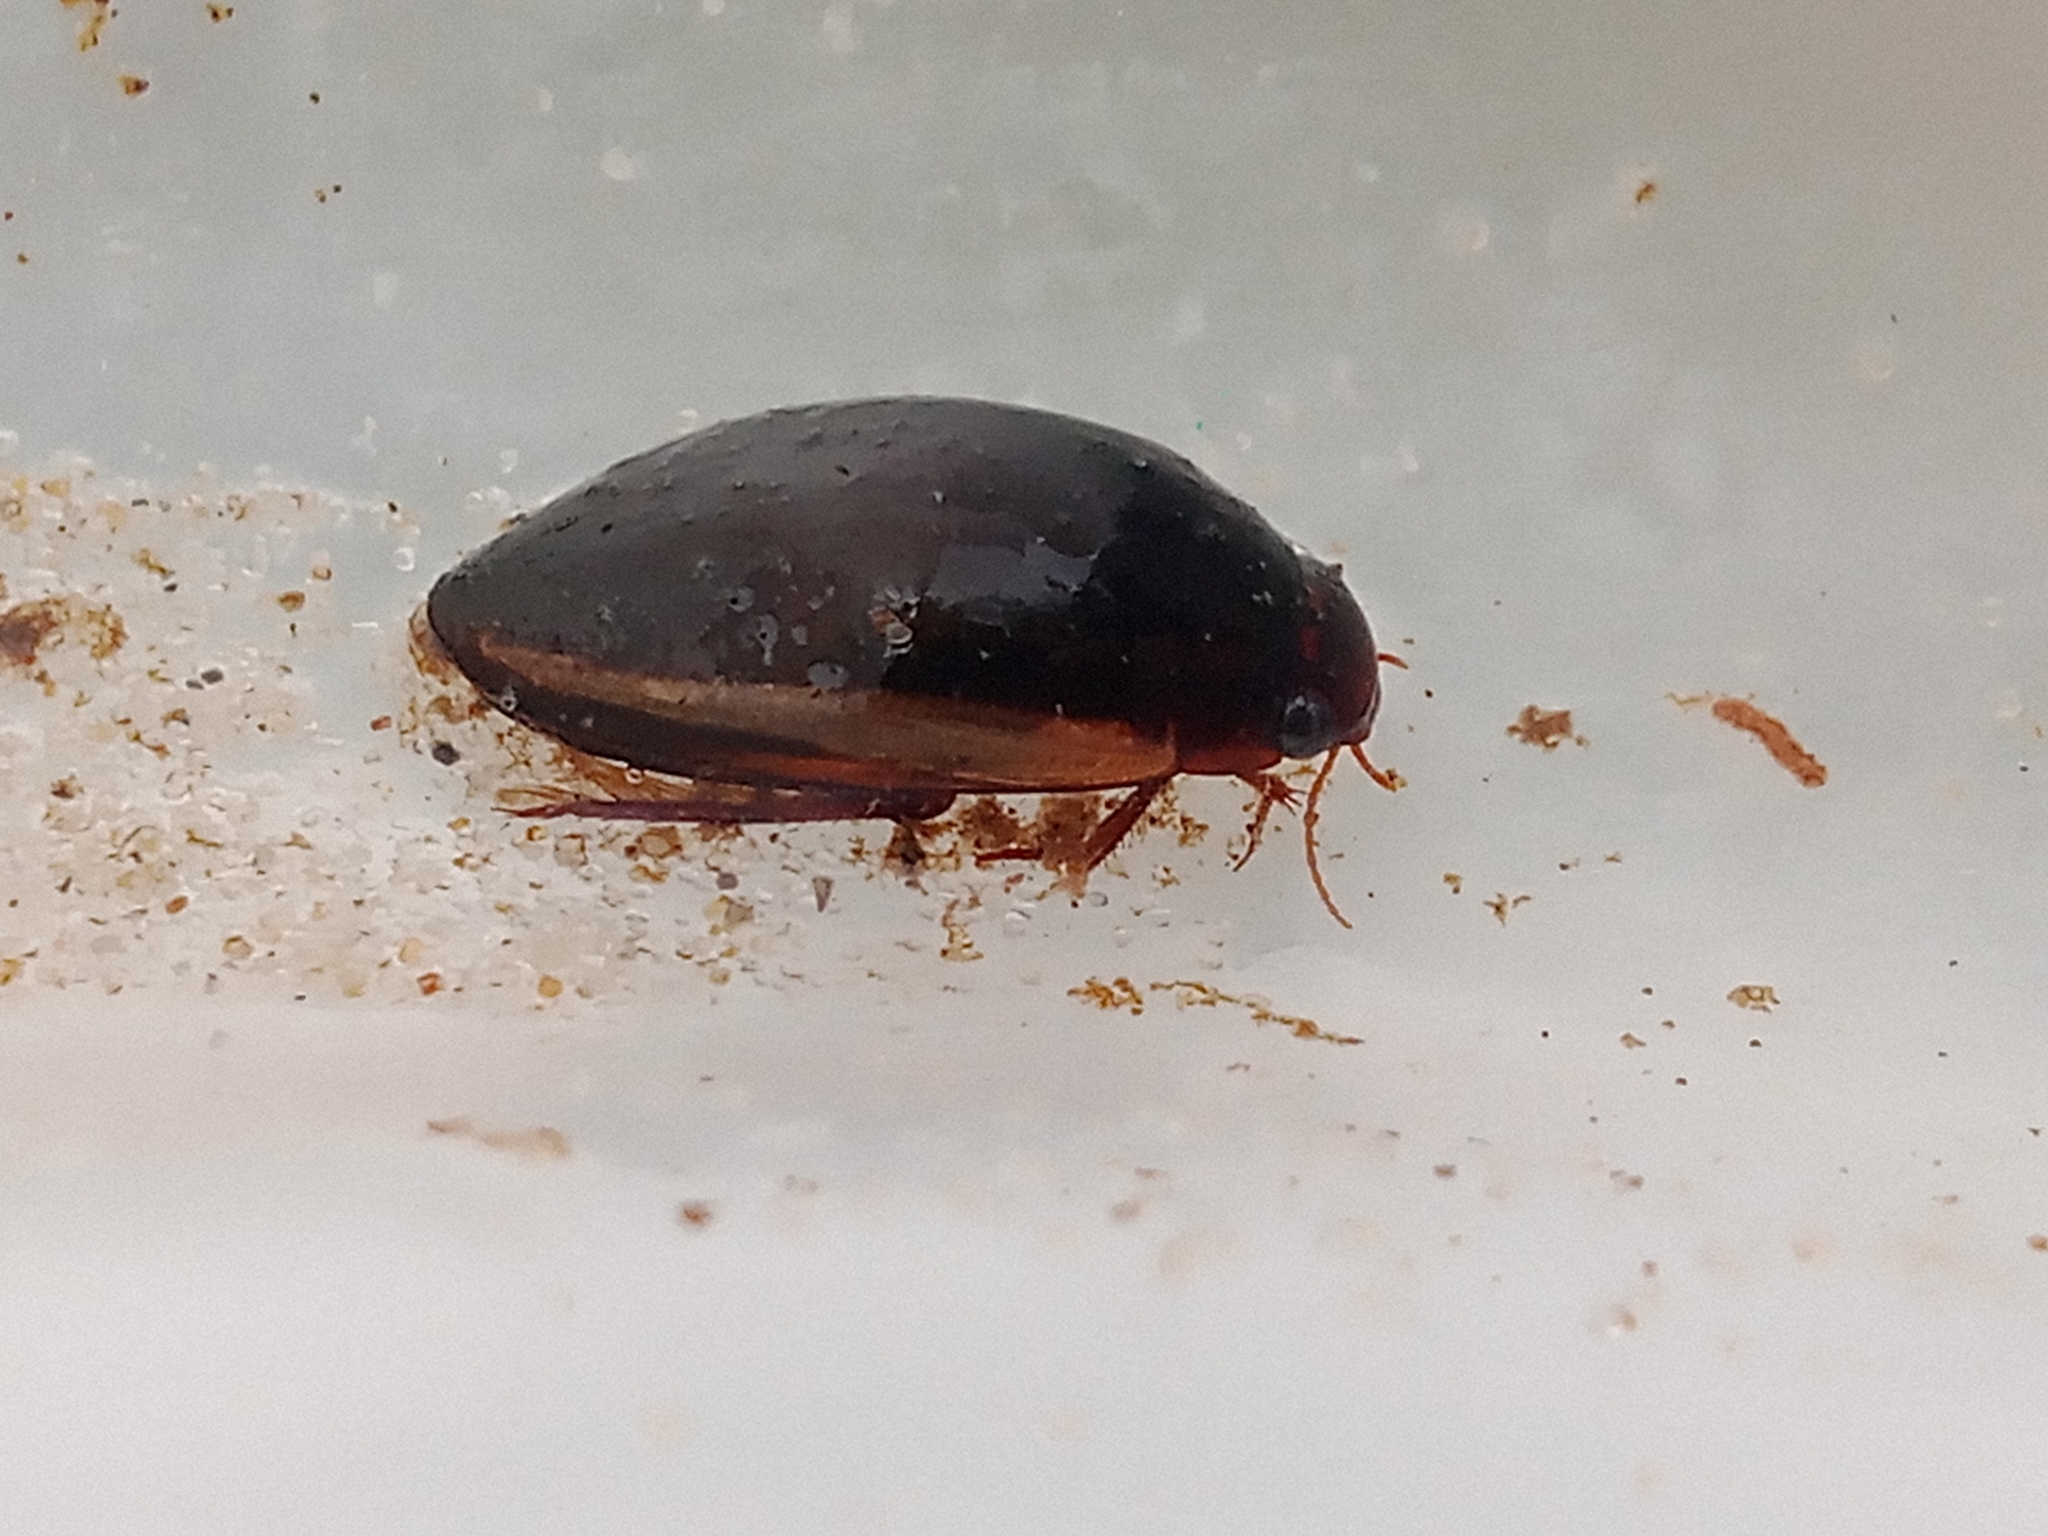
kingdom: Animalia
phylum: Arthropoda
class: Insecta
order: Coleoptera
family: Dytiscidae
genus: Ilybius
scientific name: Ilybius fuliginosus
